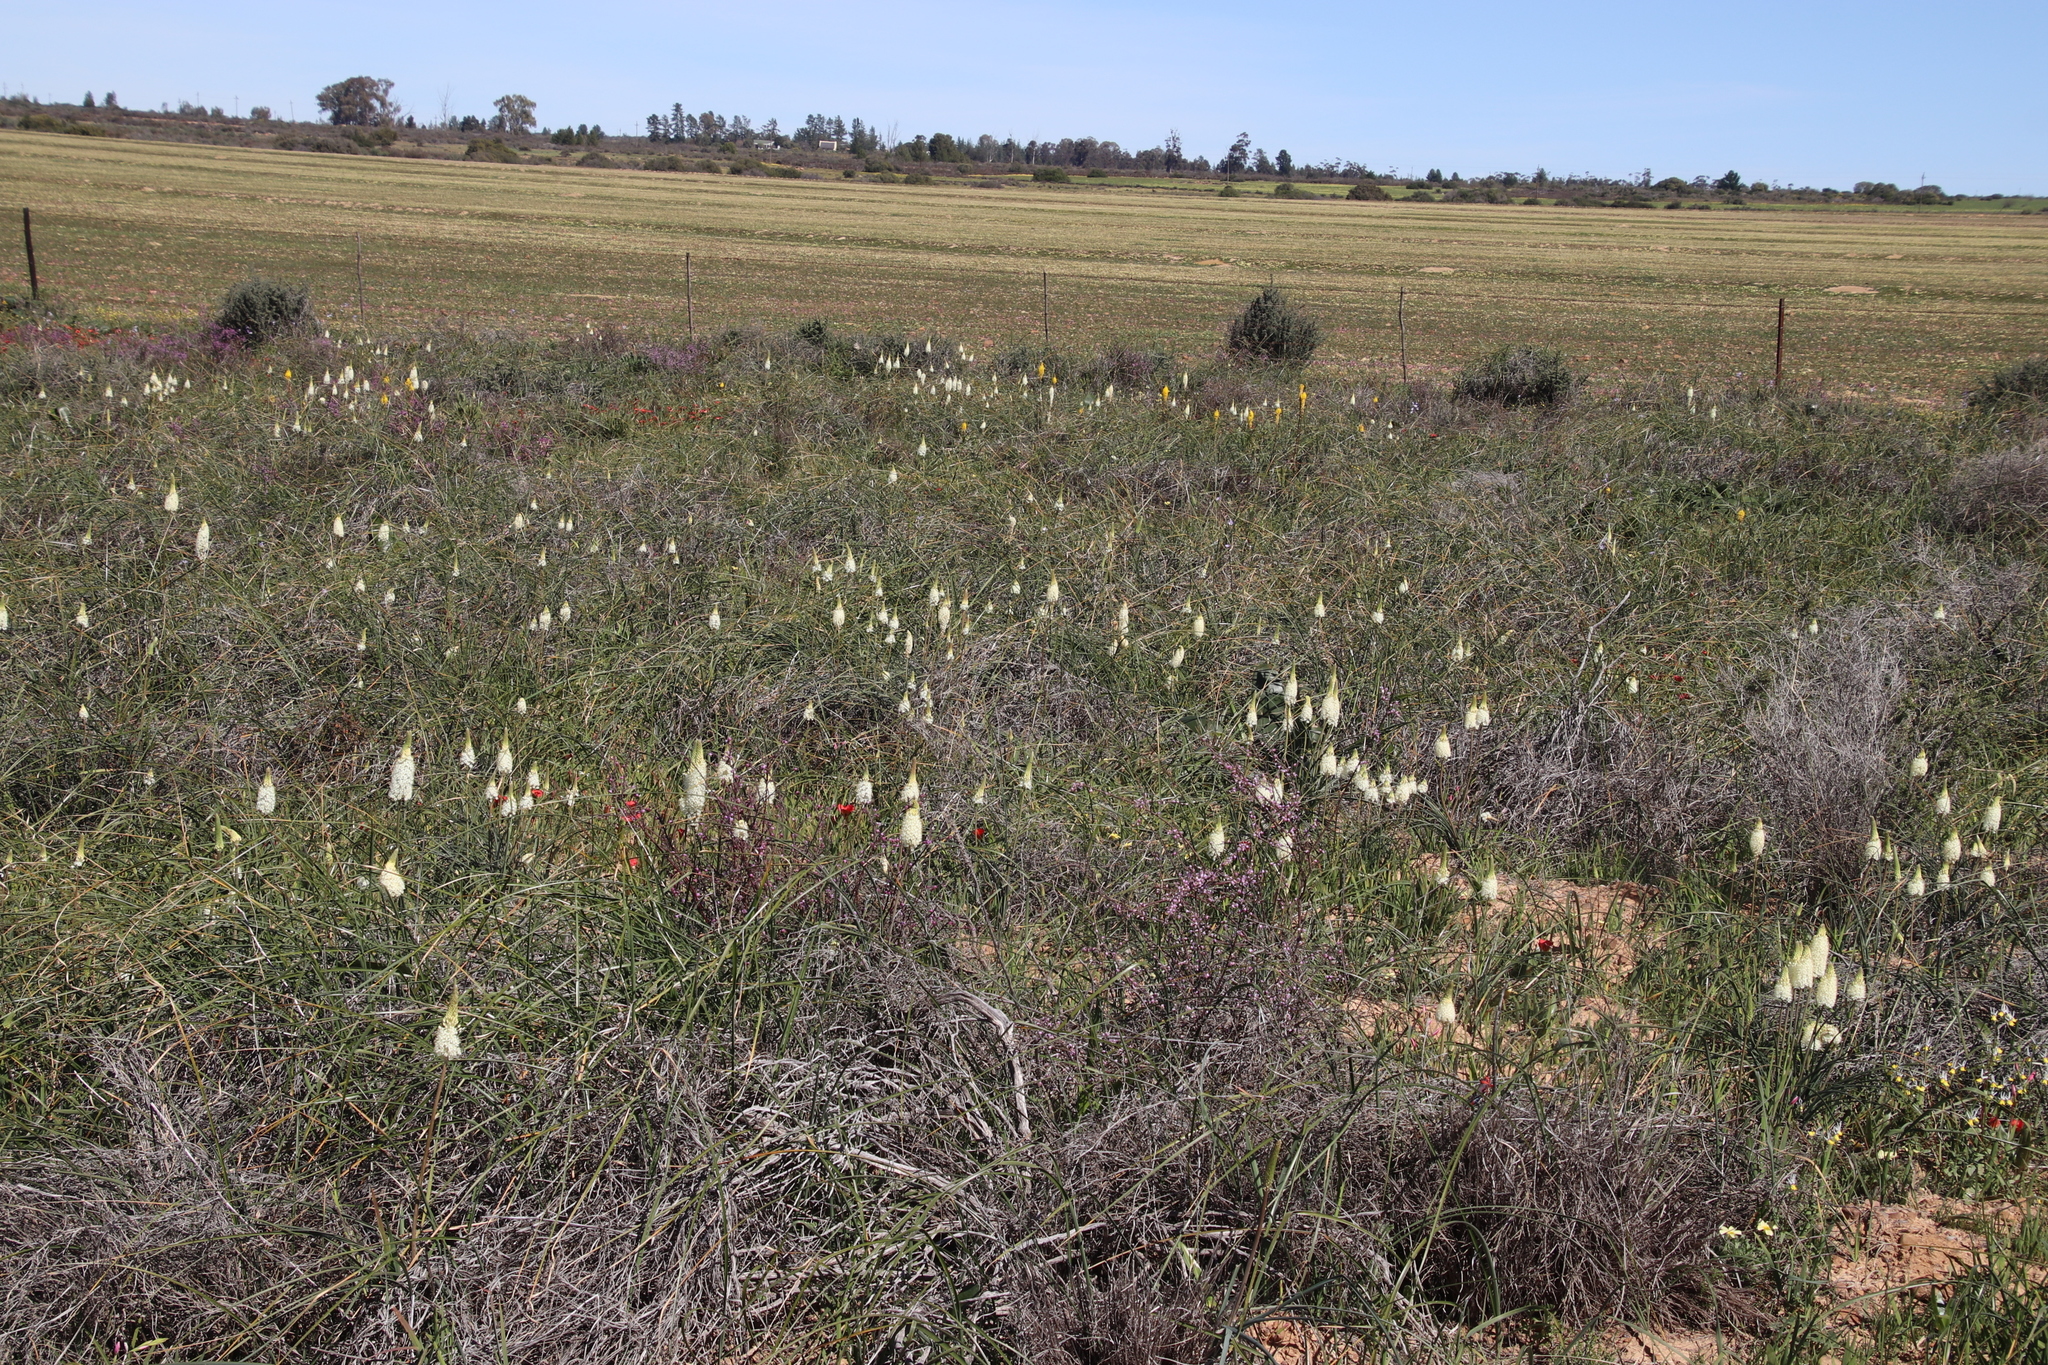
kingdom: Plantae
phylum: Tracheophyta
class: Liliopsida
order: Asparagales
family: Asphodelaceae
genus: Bulbinella
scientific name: Bulbinella cauda-felis
